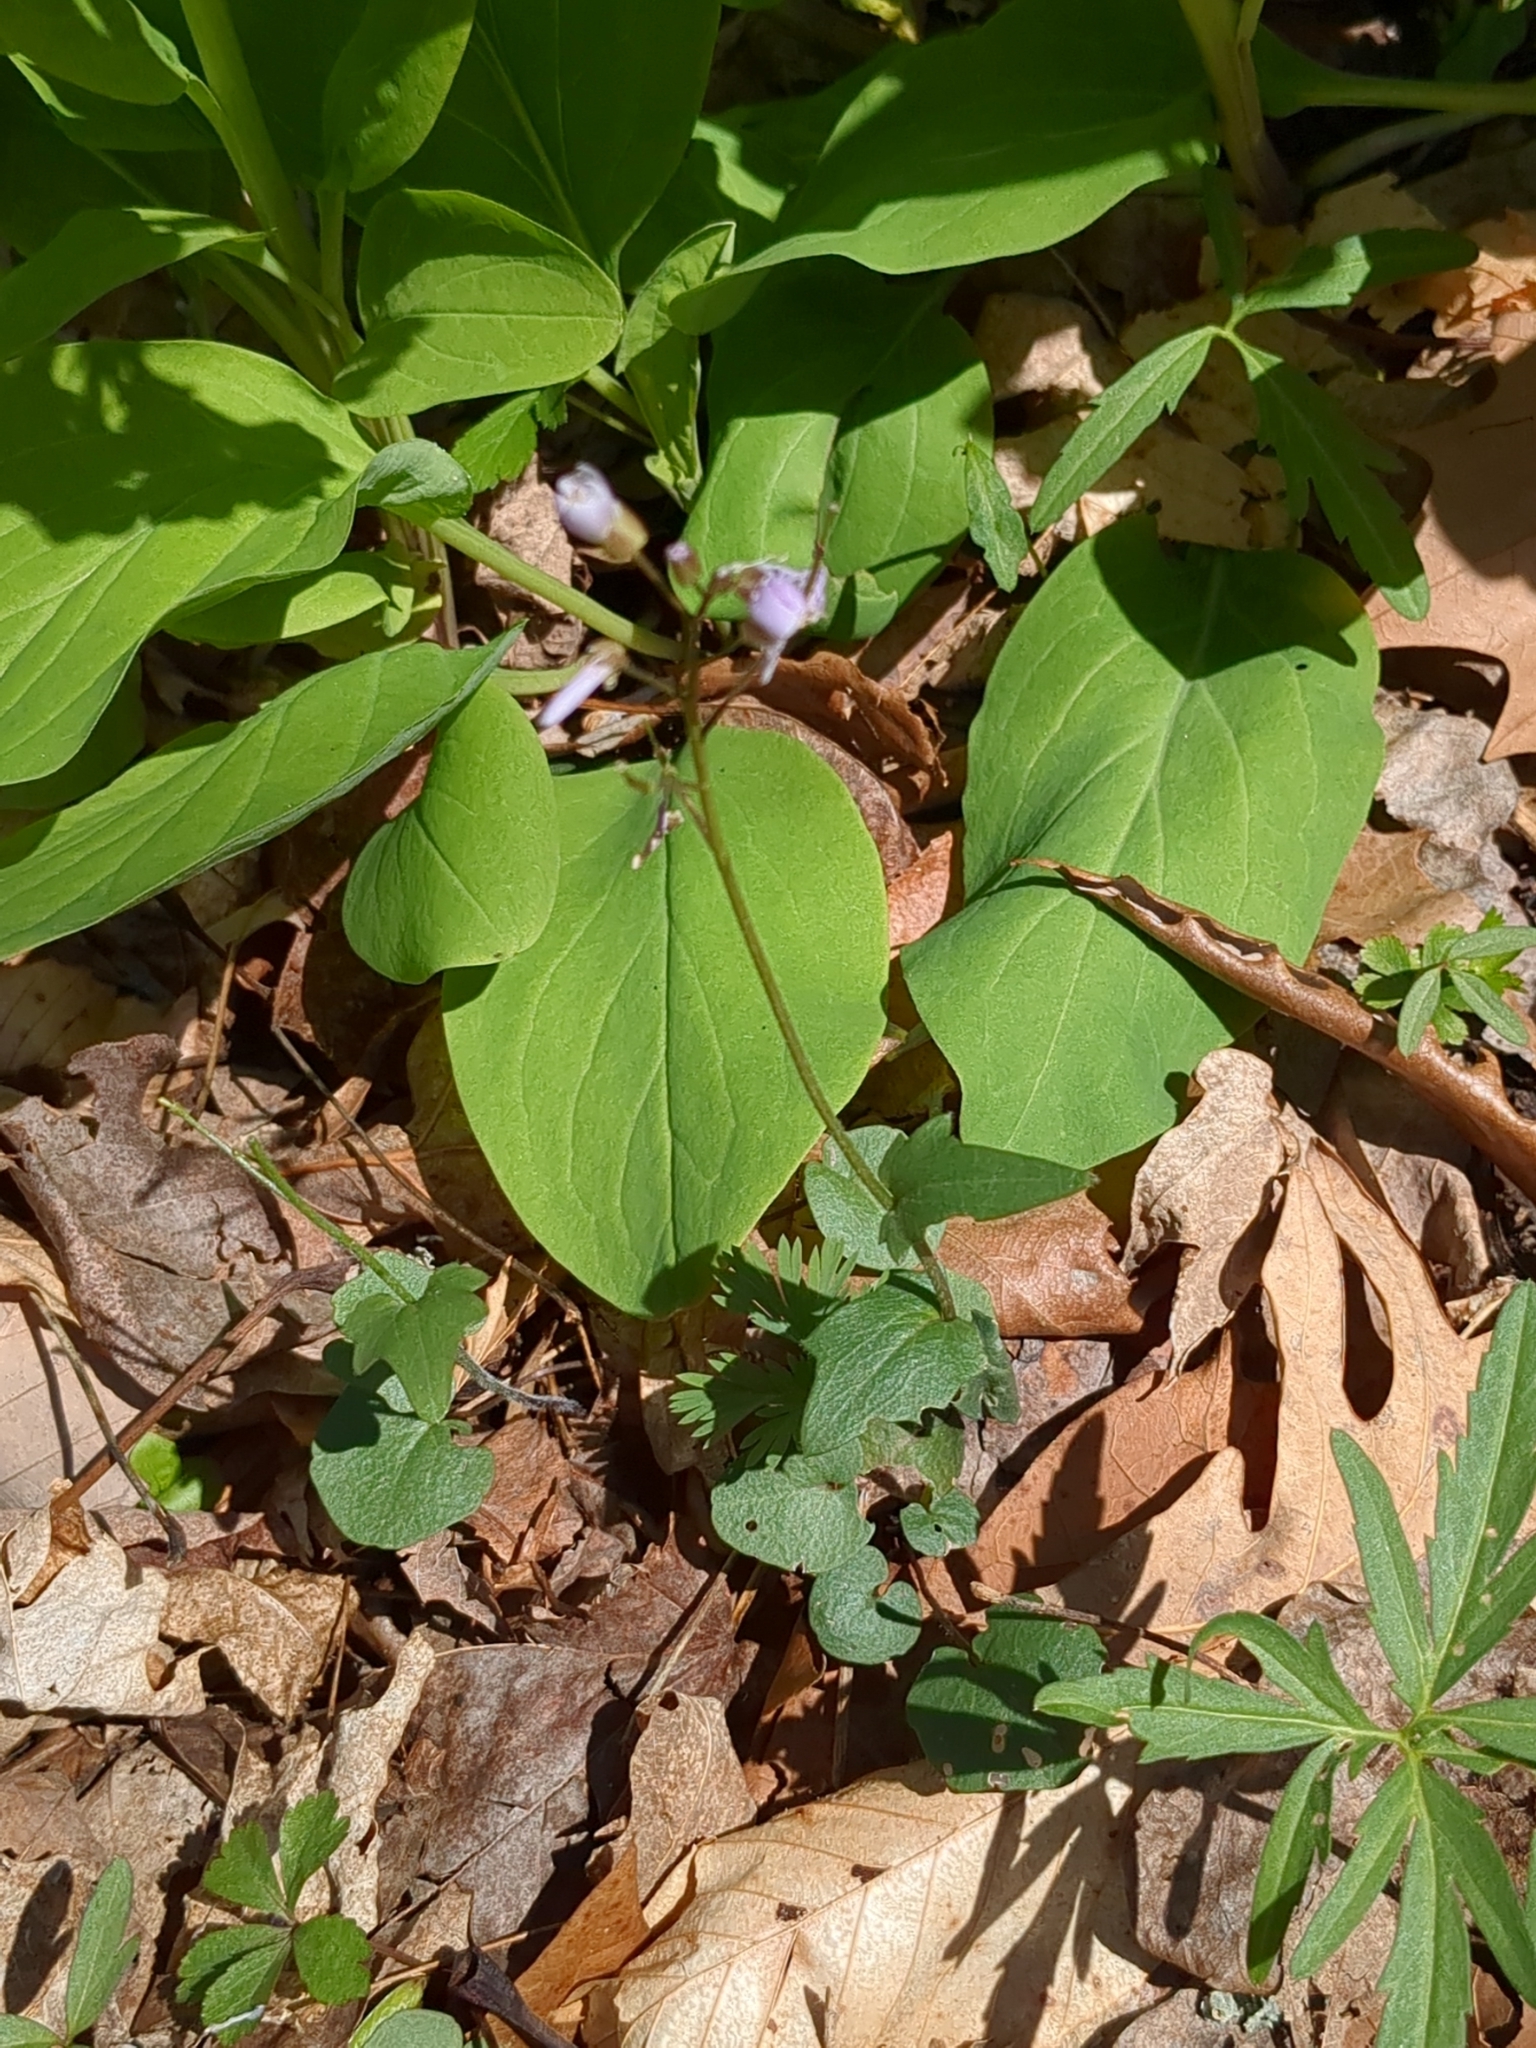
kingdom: Plantae
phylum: Tracheophyta
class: Magnoliopsida
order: Brassicales
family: Brassicaceae
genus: Cardamine
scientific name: Cardamine douglassii
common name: Purple cress
